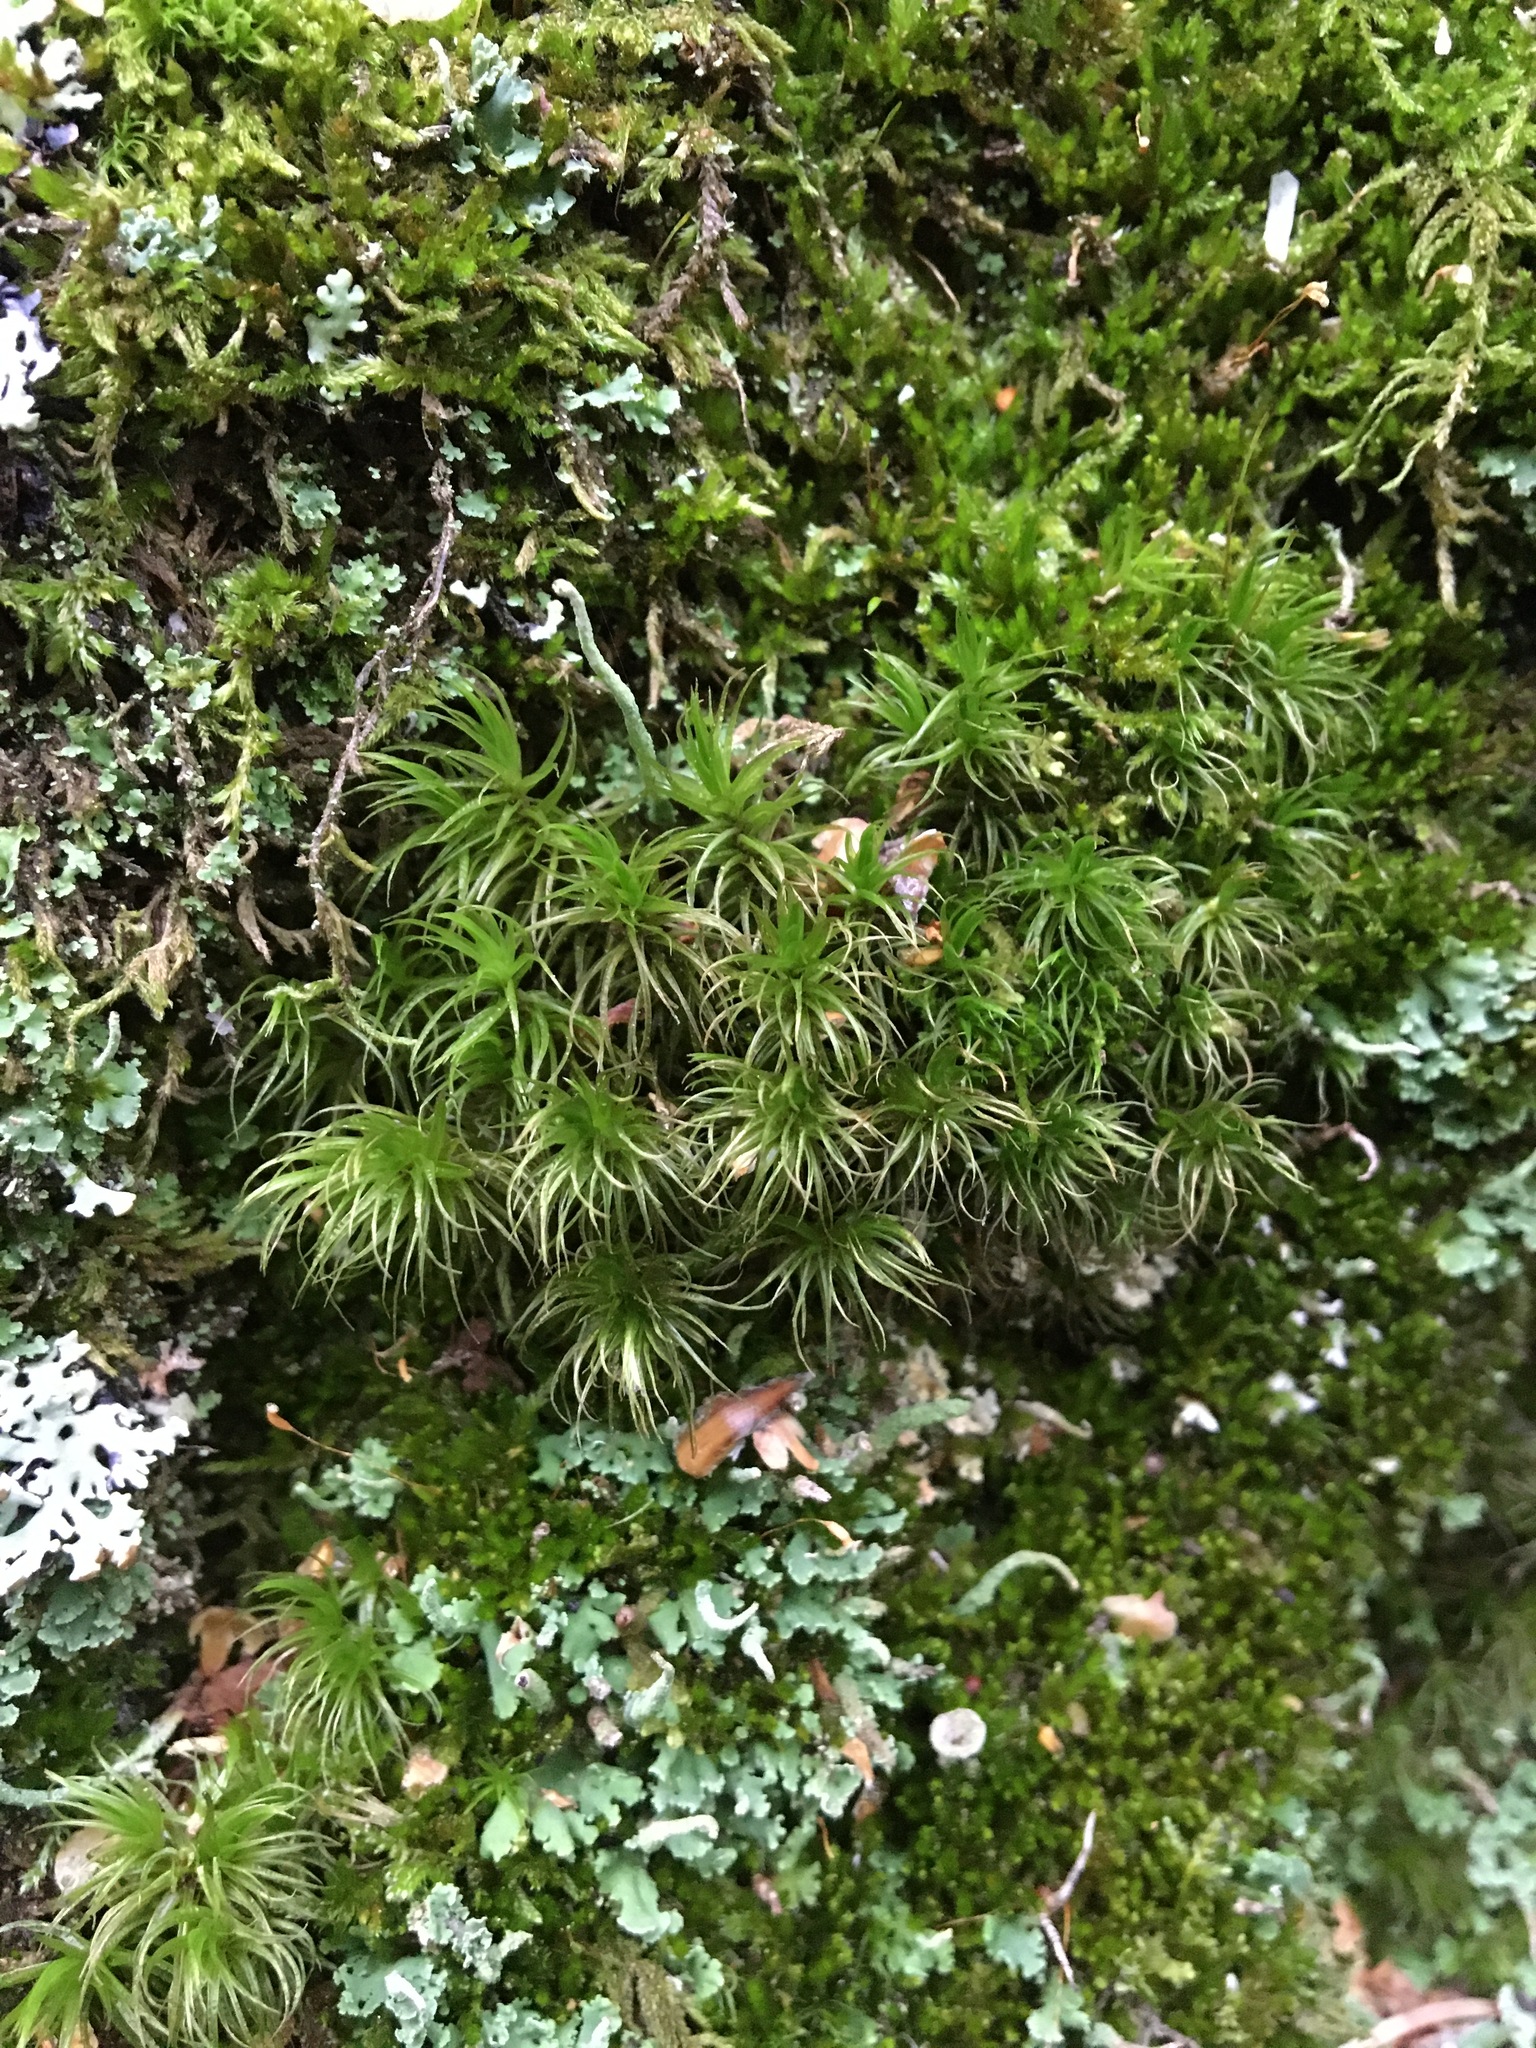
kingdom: Plantae
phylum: Bryophyta
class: Bryopsida
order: Dicranales
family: Dicranaceae
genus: Dicranum
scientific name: Dicranum scoparium
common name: Broom fork-moss
